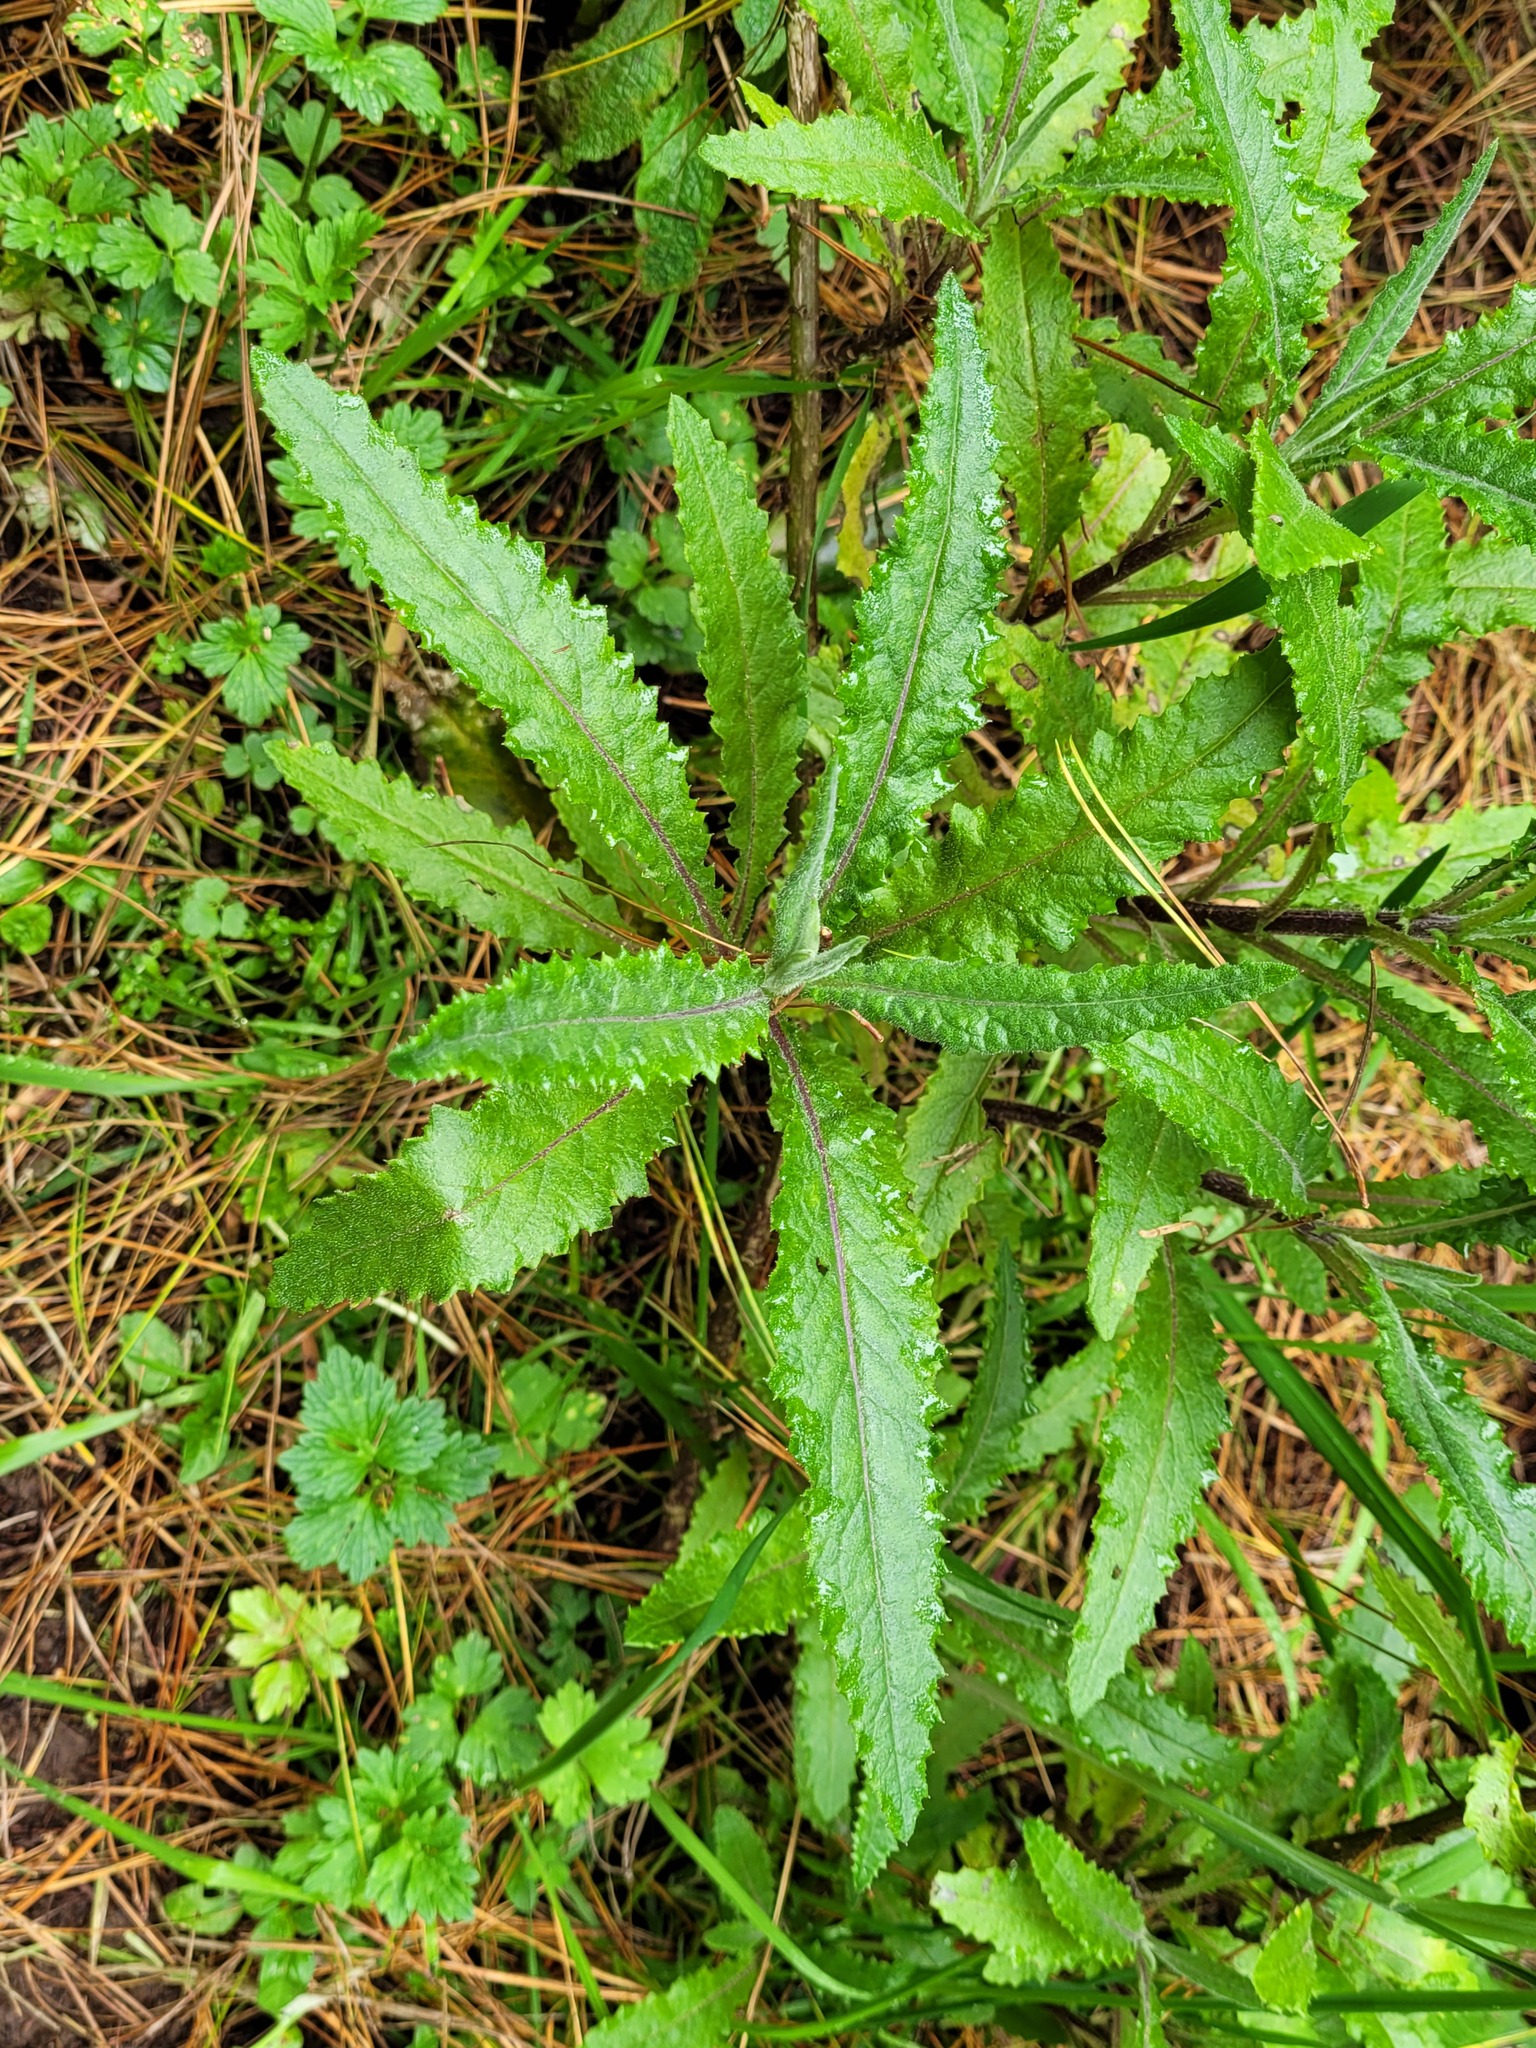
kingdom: Plantae
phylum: Tracheophyta
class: Magnoliopsida
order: Asterales
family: Asteraceae
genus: Senecio
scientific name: Senecio minimus
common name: Toothed fireweed
